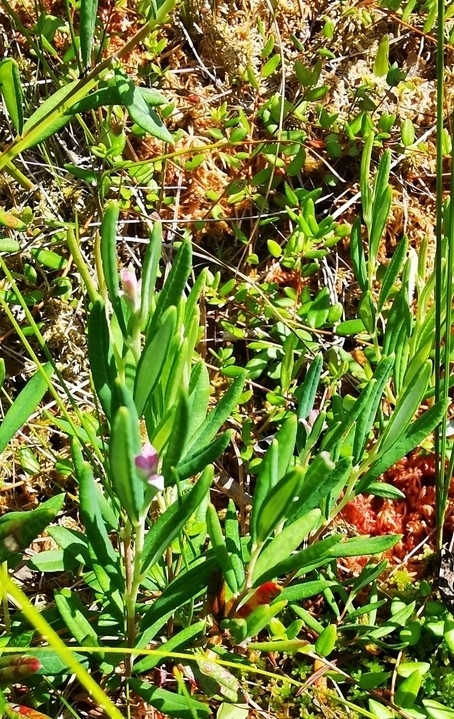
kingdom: Plantae
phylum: Tracheophyta
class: Magnoliopsida
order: Ericales
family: Ericaceae
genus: Andromeda
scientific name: Andromeda polifolia
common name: Bog-rosemary
